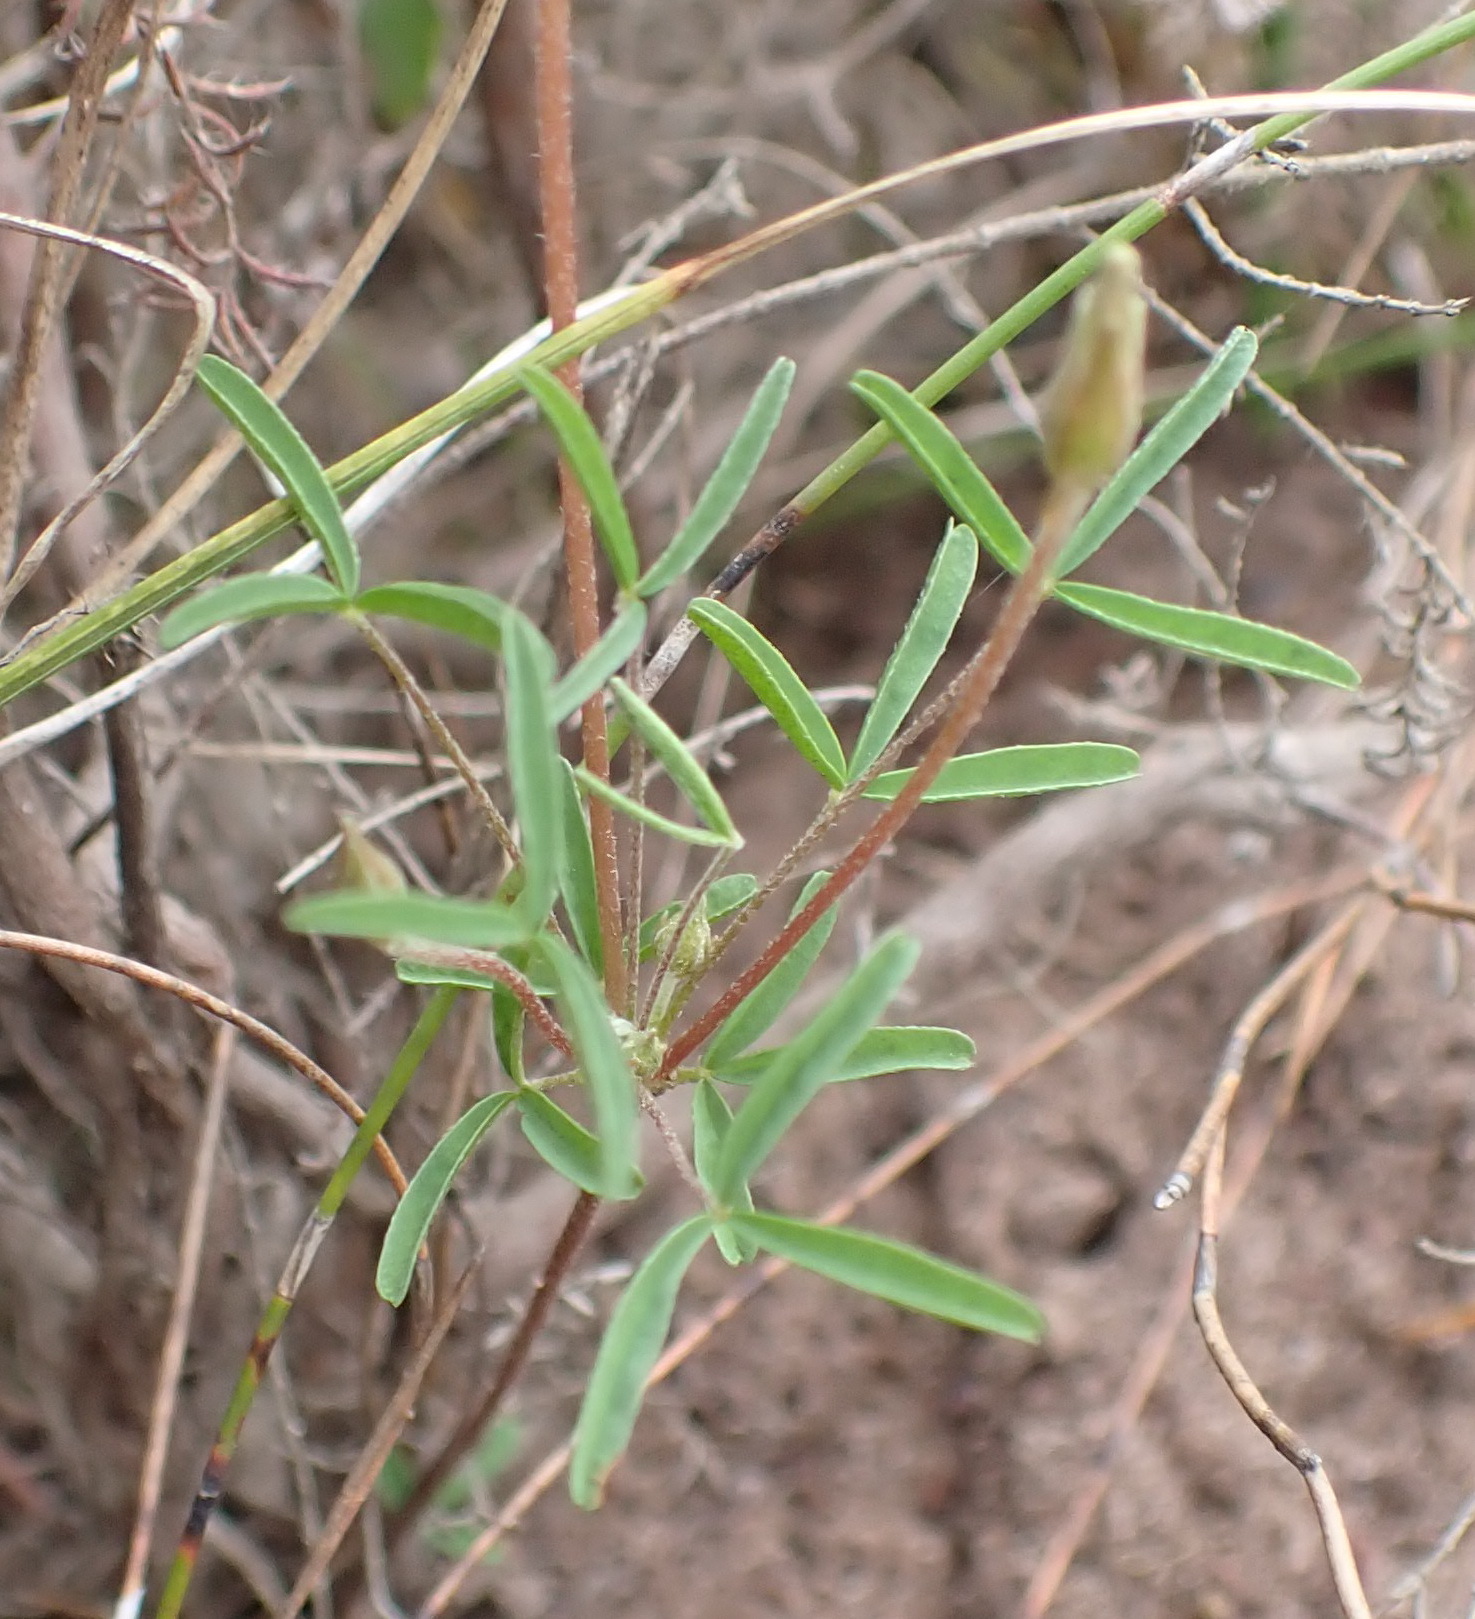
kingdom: Plantae
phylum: Tracheophyta
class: Magnoliopsida
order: Oxalidales
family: Oxalidaceae
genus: Oxalis
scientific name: Oxalis ciliaris
